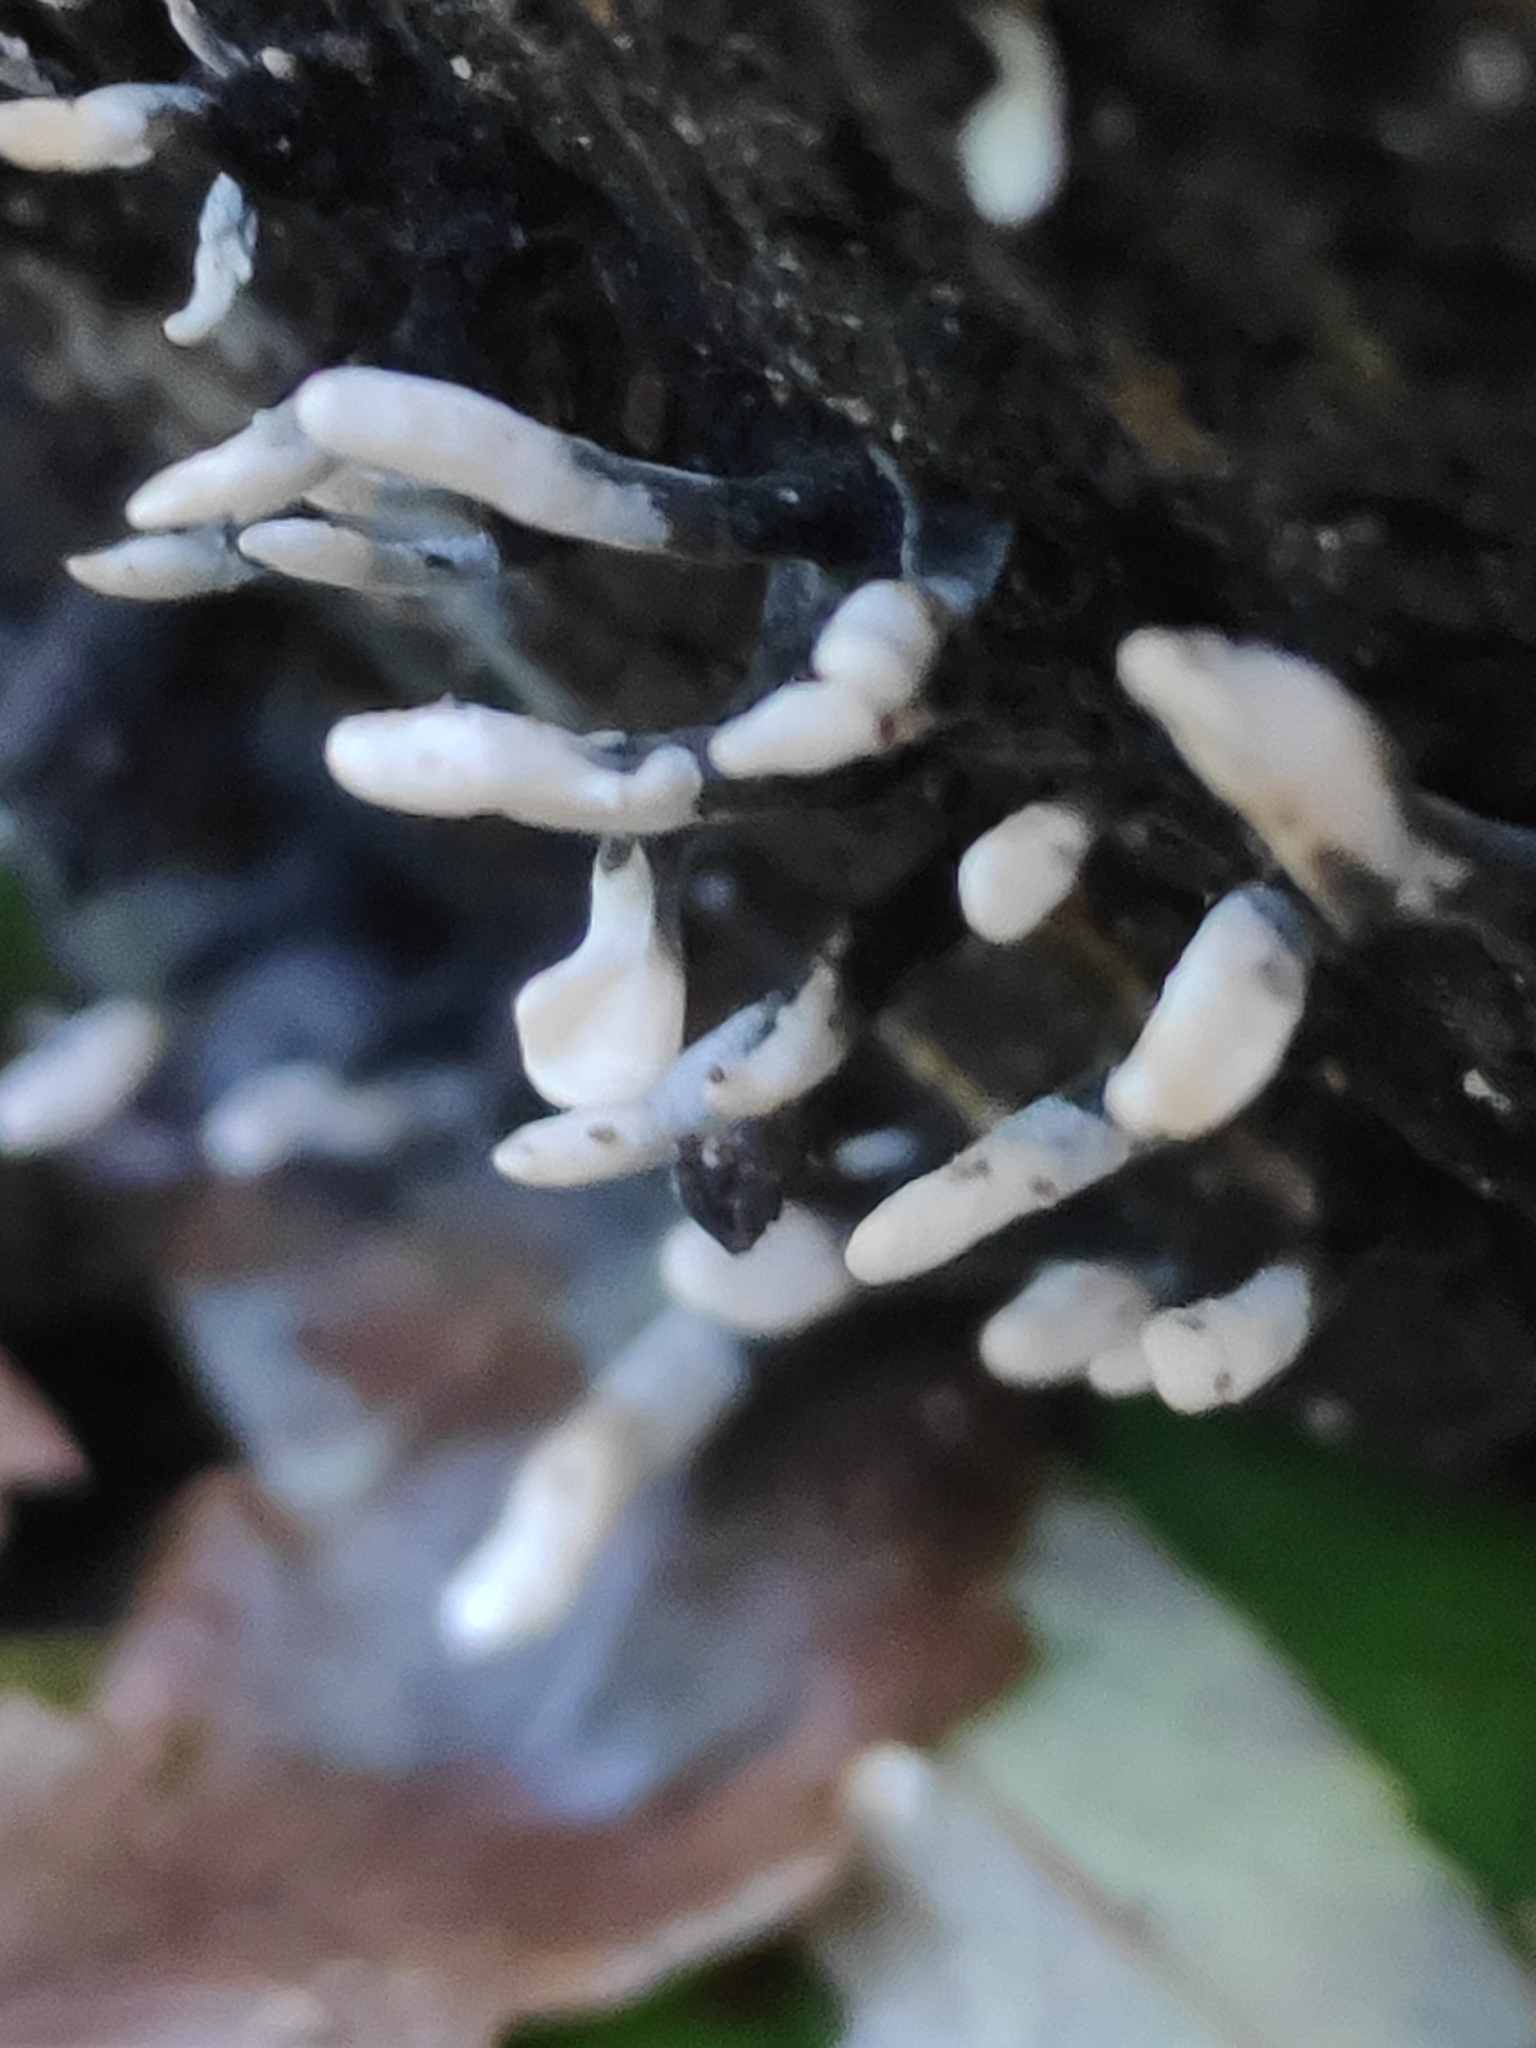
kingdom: Fungi
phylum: Ascomycota
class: Sordariomycetes
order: Xylariales
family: Xylariaceae
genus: Xylaria
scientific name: Xylaria hypoxylon
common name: Candle-snuff fungus
